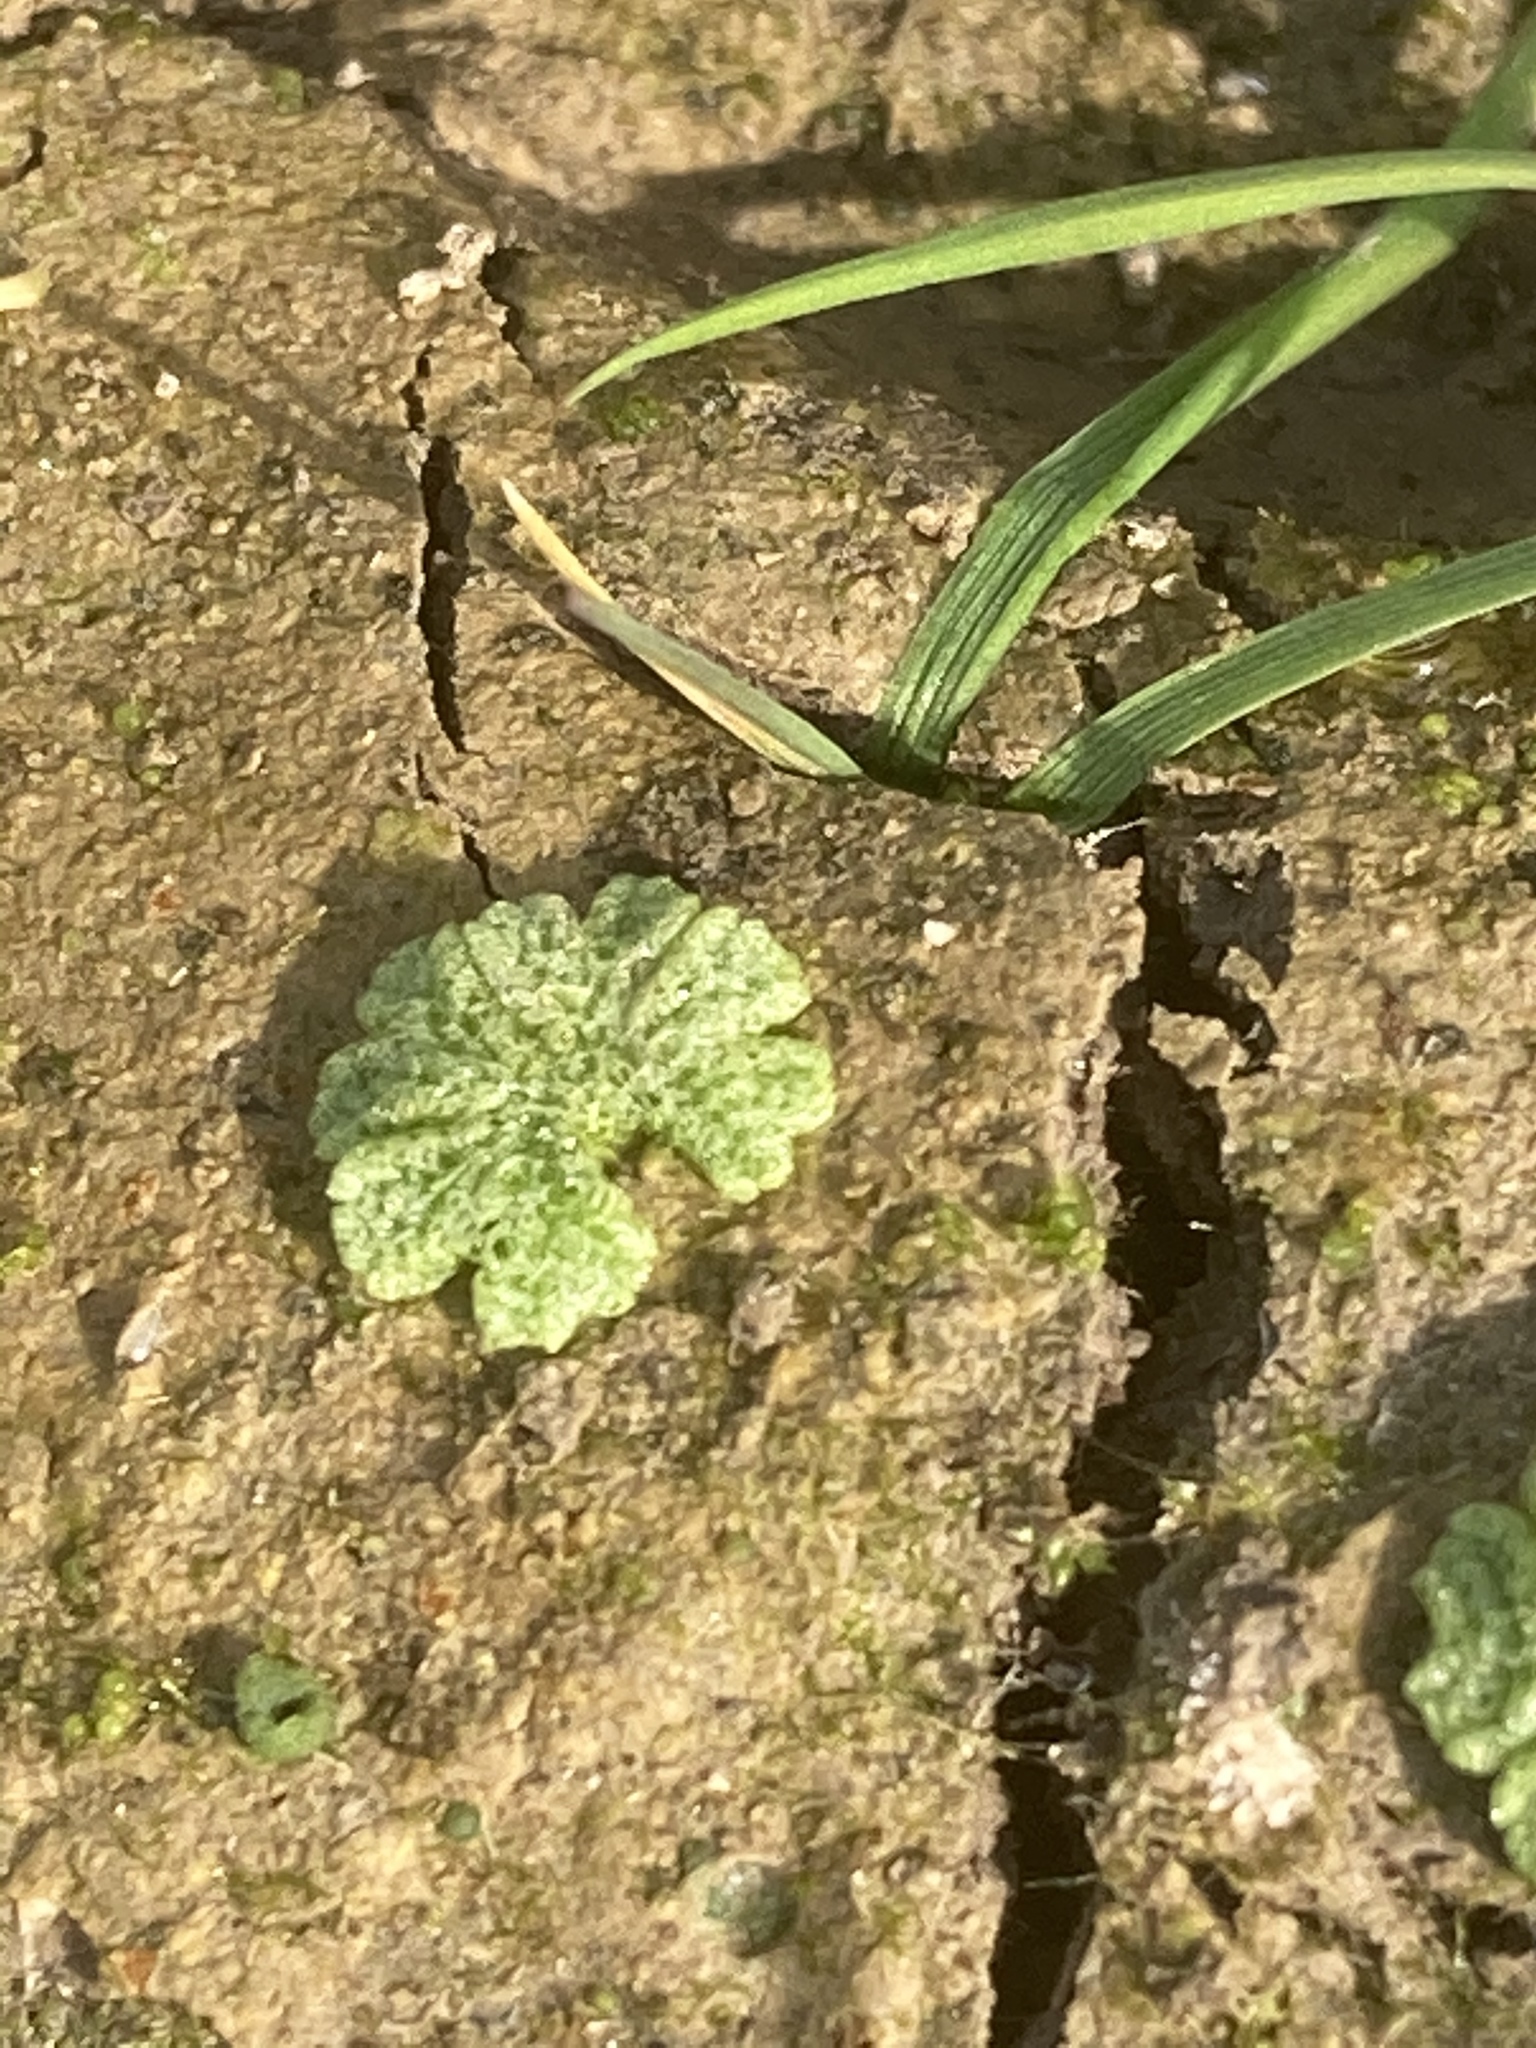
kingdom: Plantae
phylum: Marchantiophyta
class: Marchantiopsida
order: Marchantiales
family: Ricciaceae
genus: Riccia
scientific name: Riccia cavernosa
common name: Cavernous crystalwort
